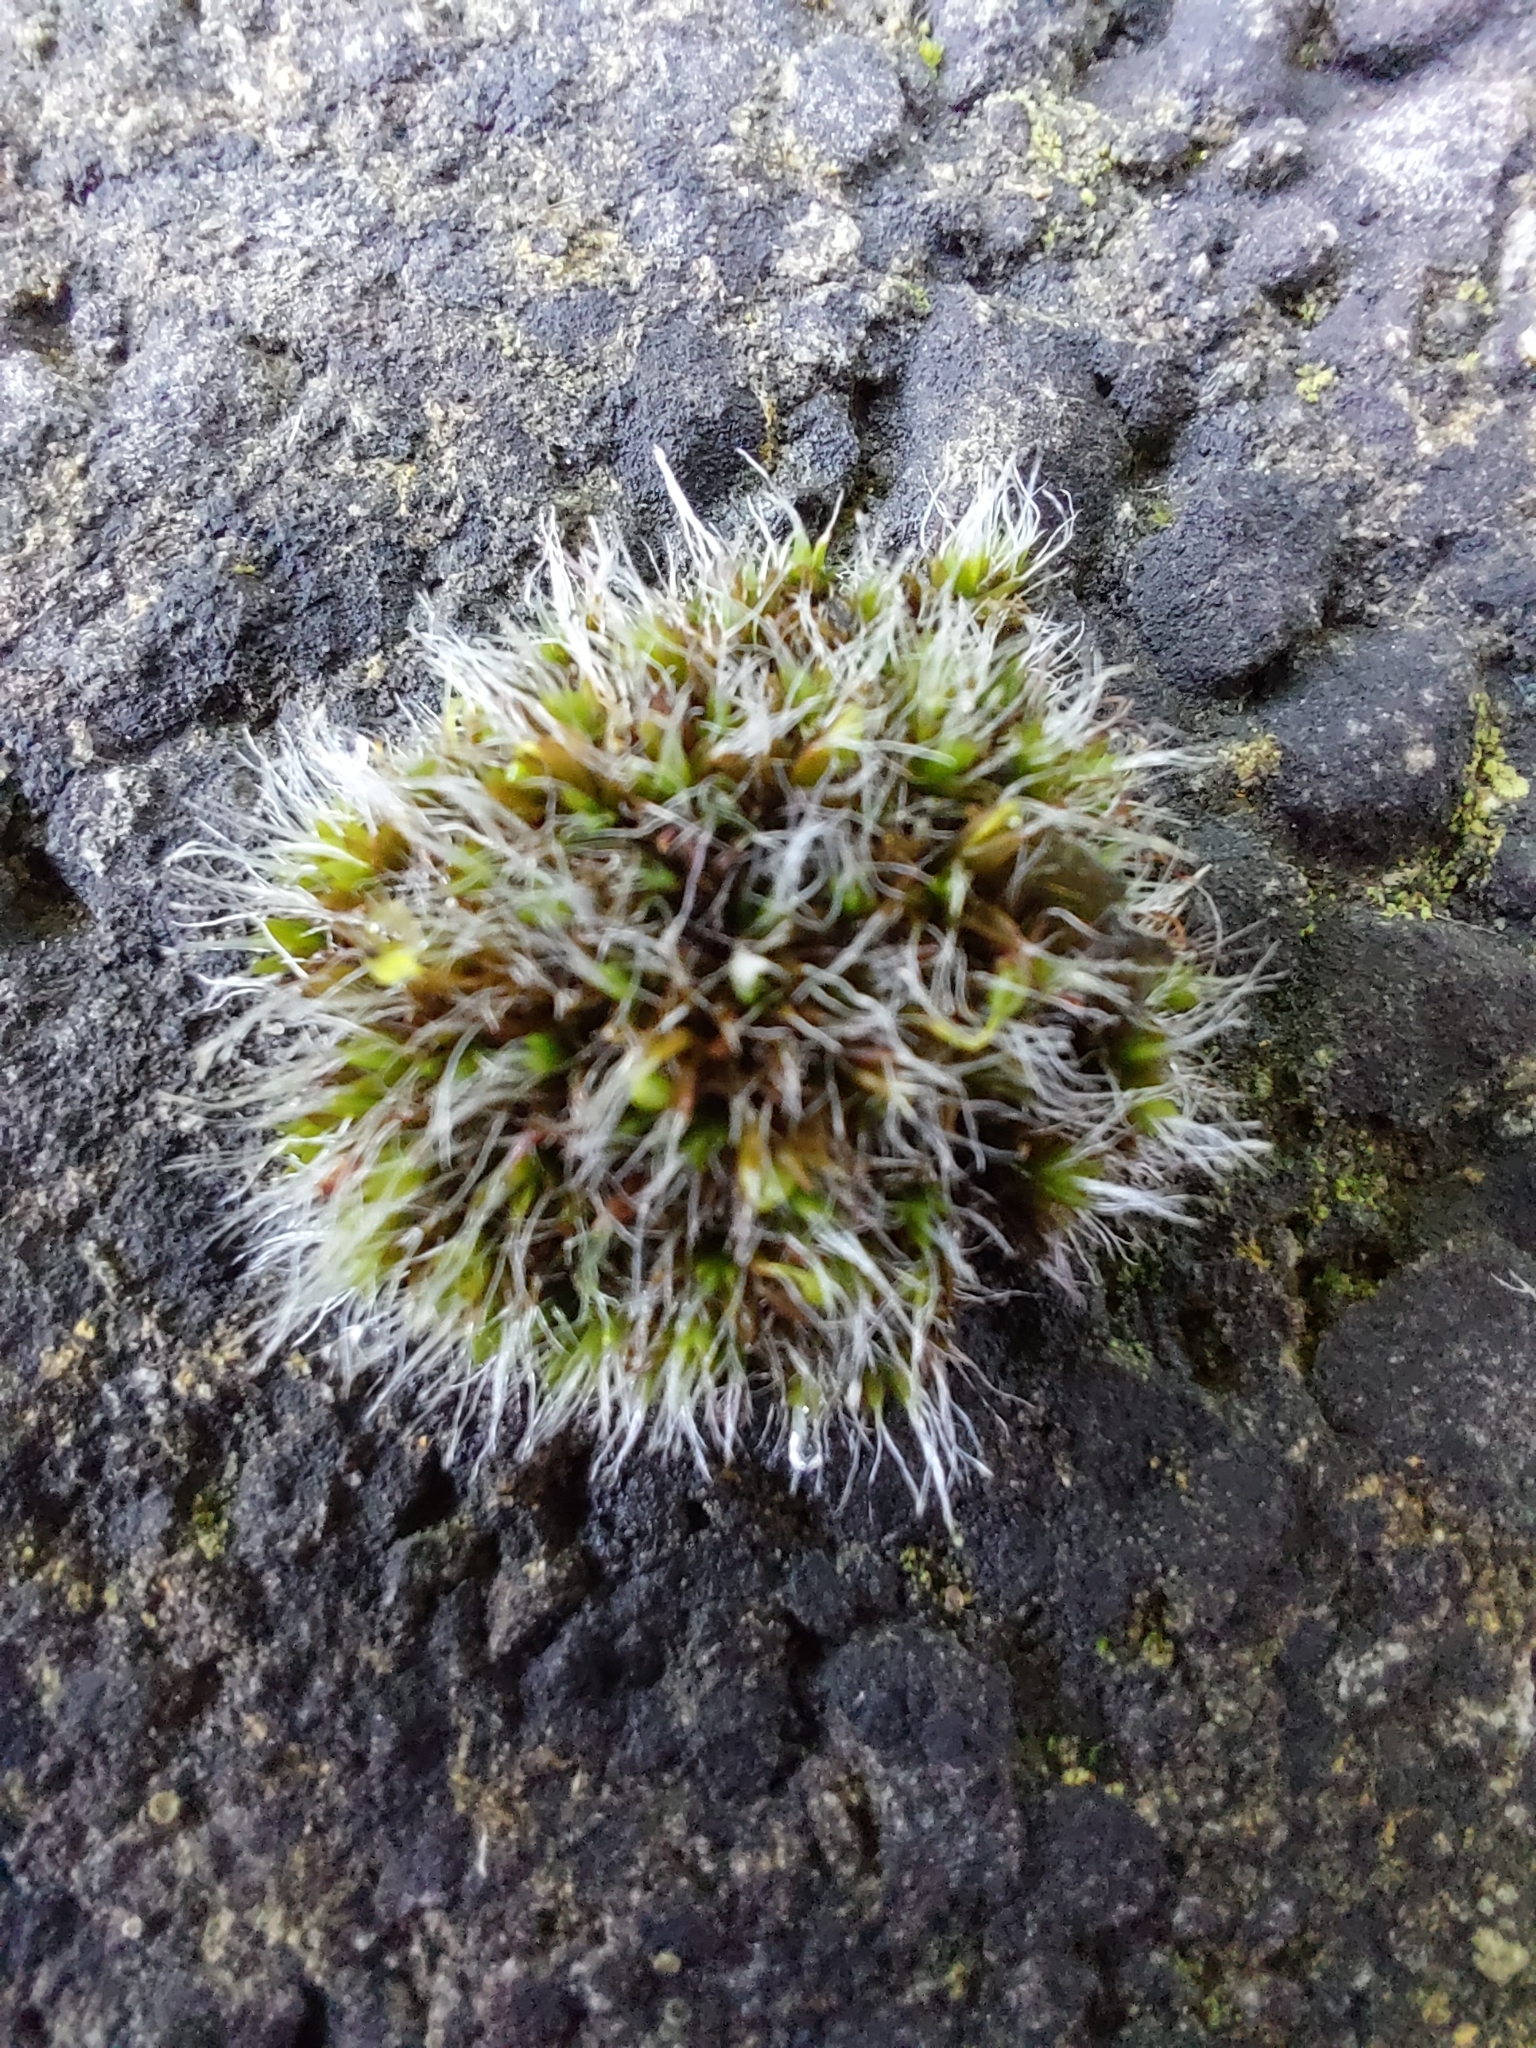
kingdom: Plantae
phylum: Bryophyta
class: Bryopsida
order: Grimmiales
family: Grimmiaceae
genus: Grimmia
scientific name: Grimmia pulvinata
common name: Grey-cushioned grimmia
